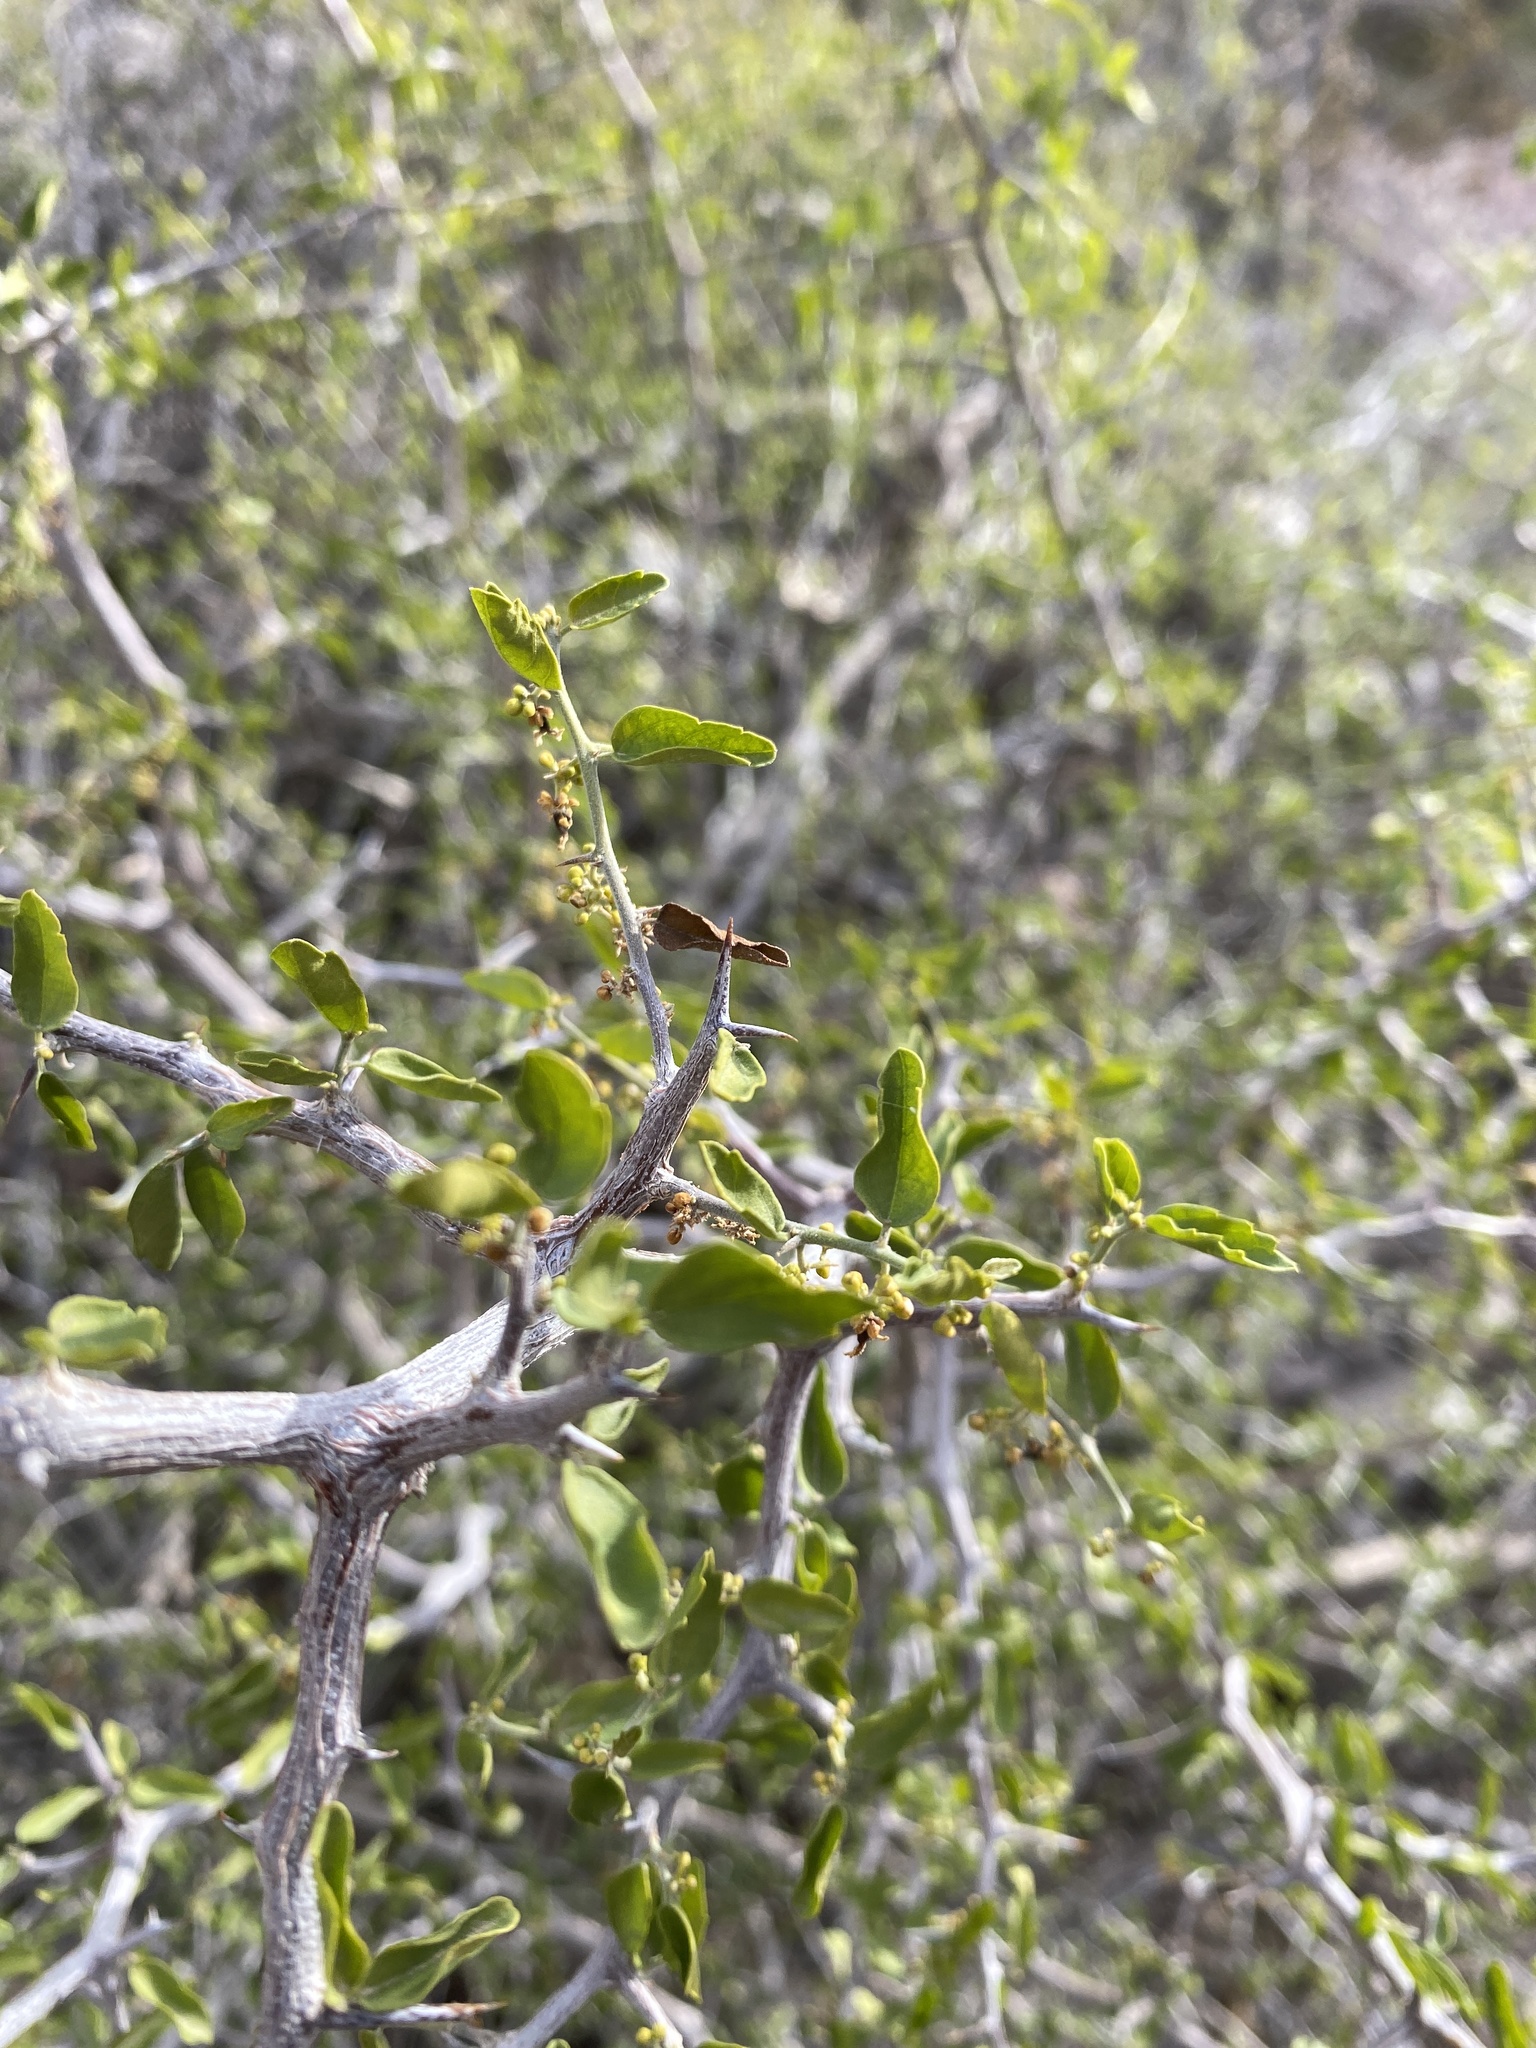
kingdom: Plantae
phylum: Tracheophyta
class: Magnoliopsida
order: Rosales
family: Cannabaceae
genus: Celtis
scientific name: Celtis pallida
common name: Desert hackberry
